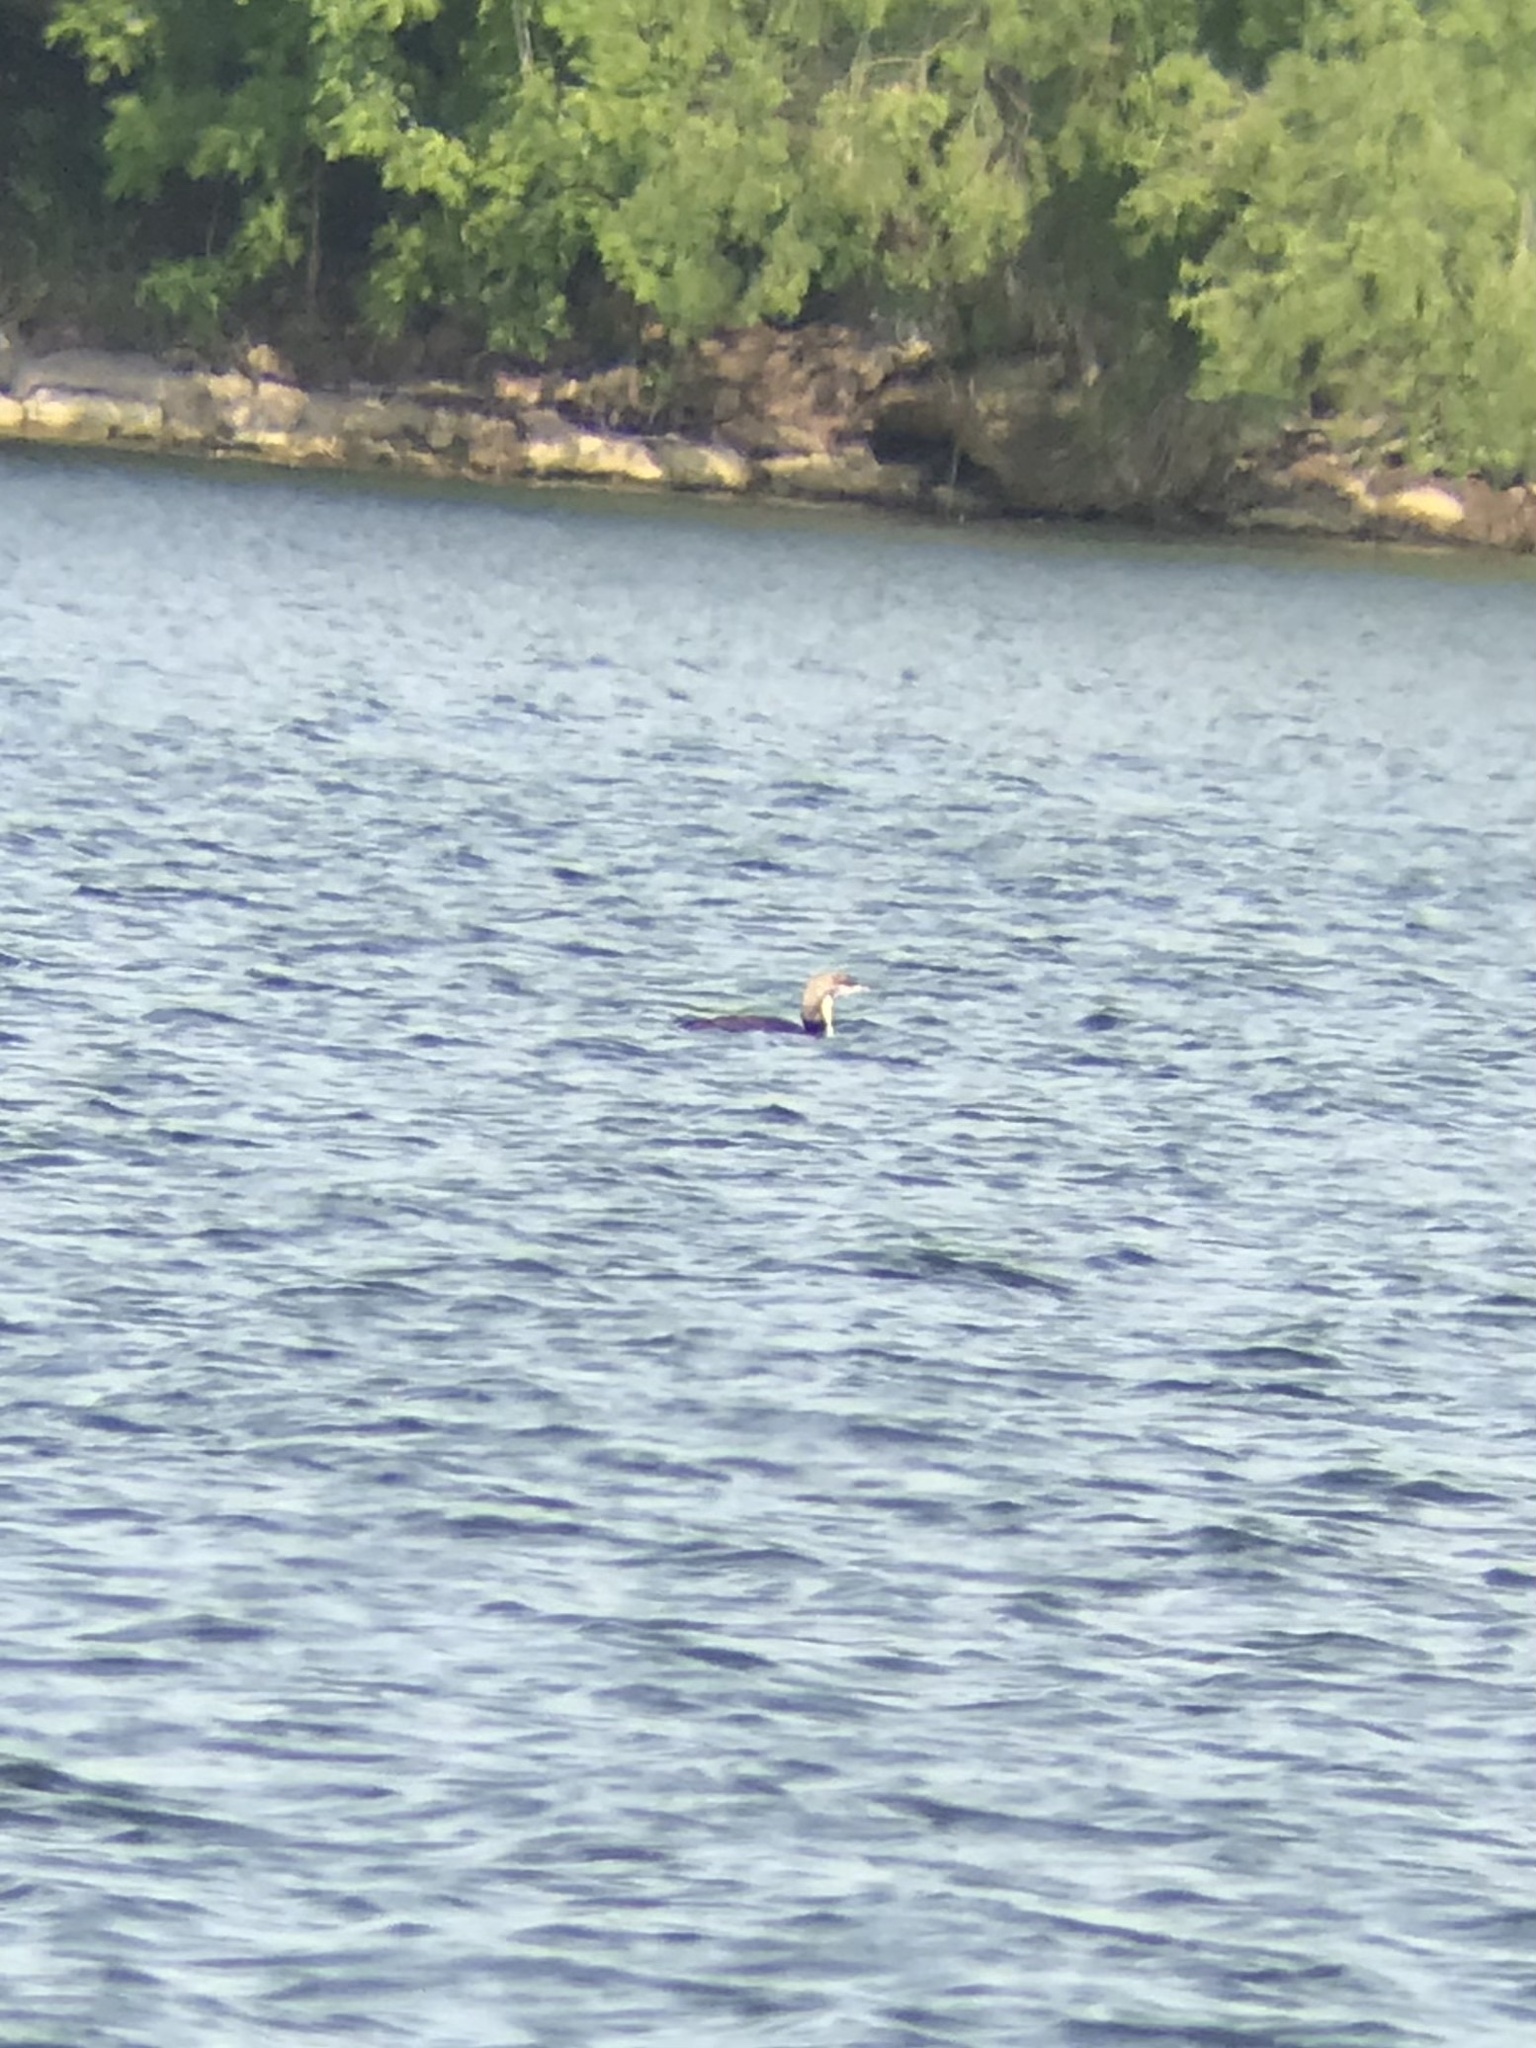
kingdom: Animalia
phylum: Chordata
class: Aves
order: Gaviiformes
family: Gaviidae
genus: Gavia
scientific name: Gavia pacifica
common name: Pacific loon
